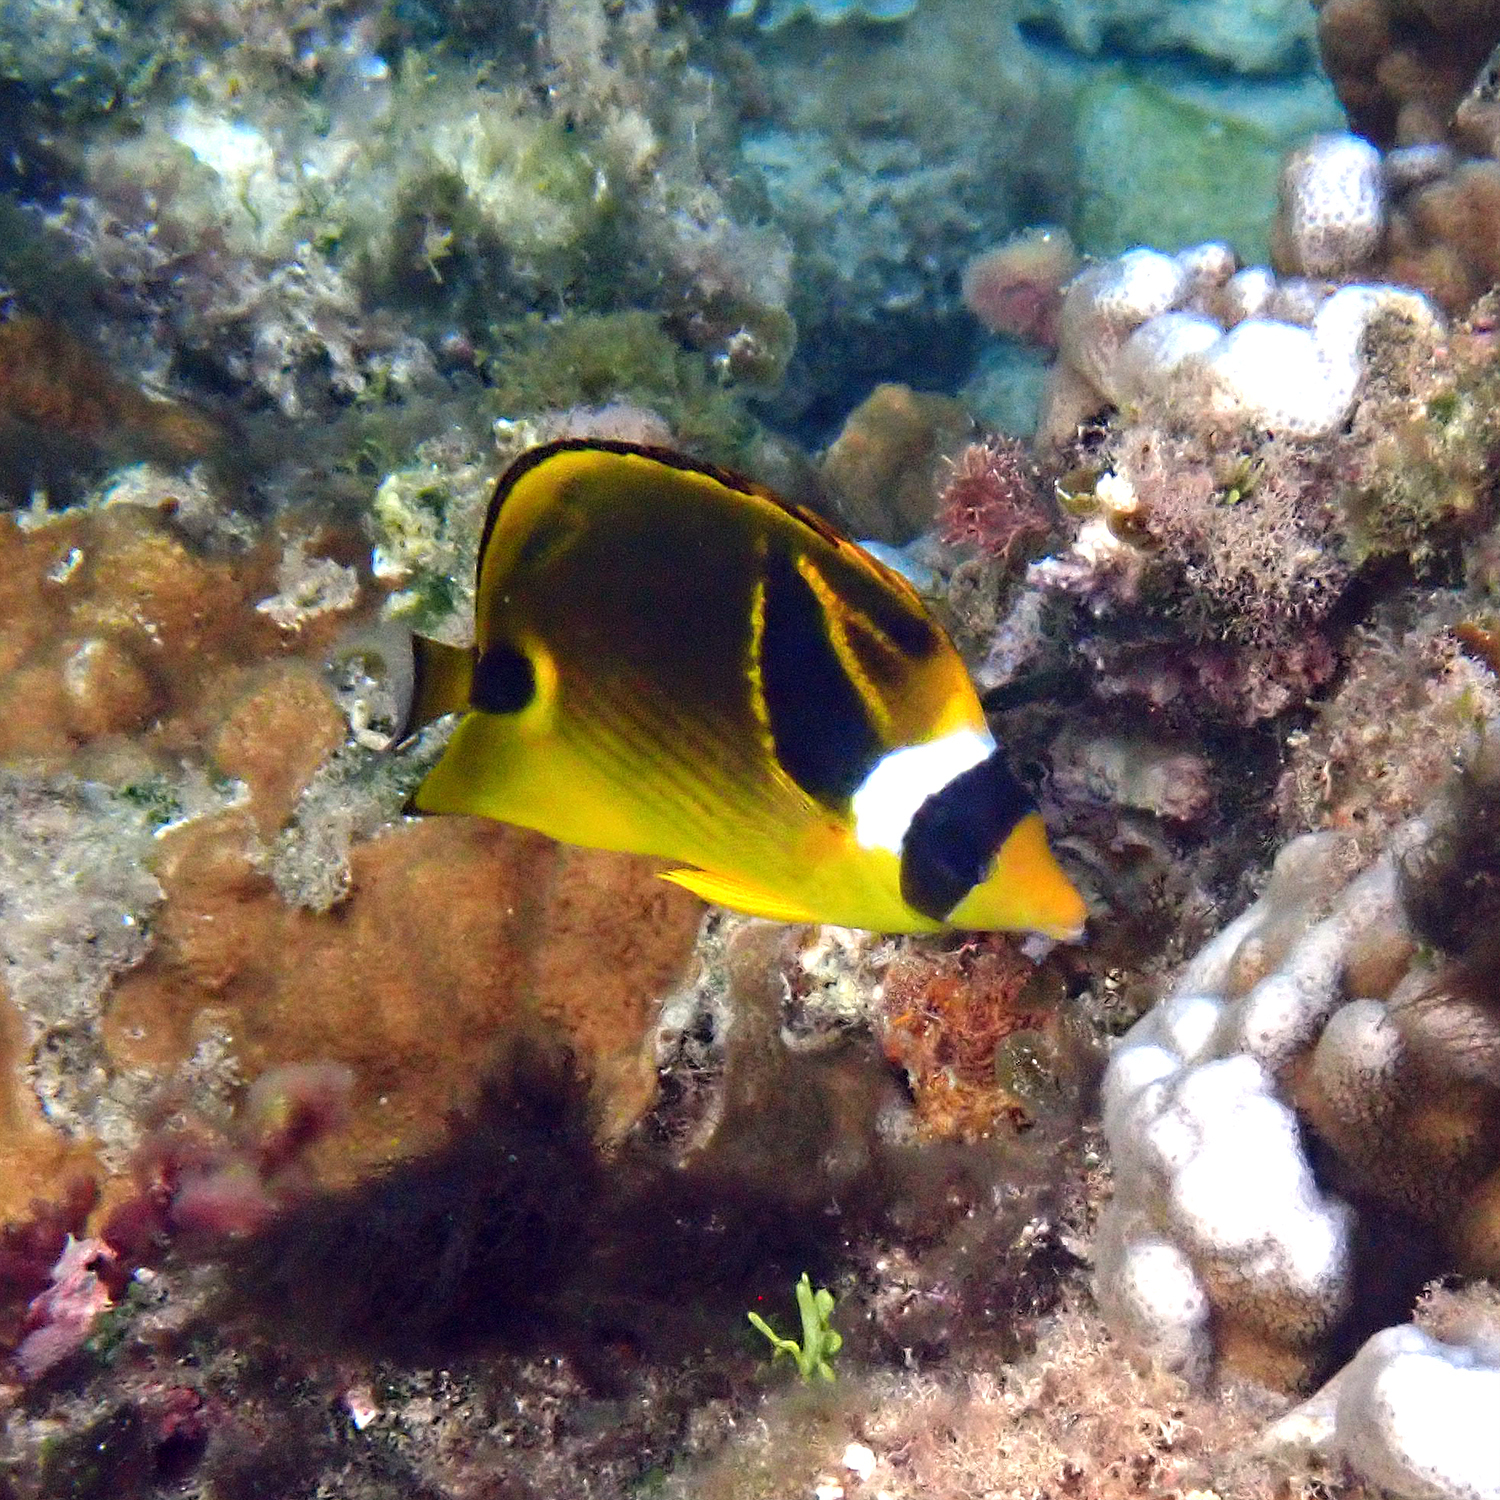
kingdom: Animalia
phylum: Chordata
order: Perciformes
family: Chaetodontidae
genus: Chaetodon
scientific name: Chaetodon lunula
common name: Raccoon butterflyfish
